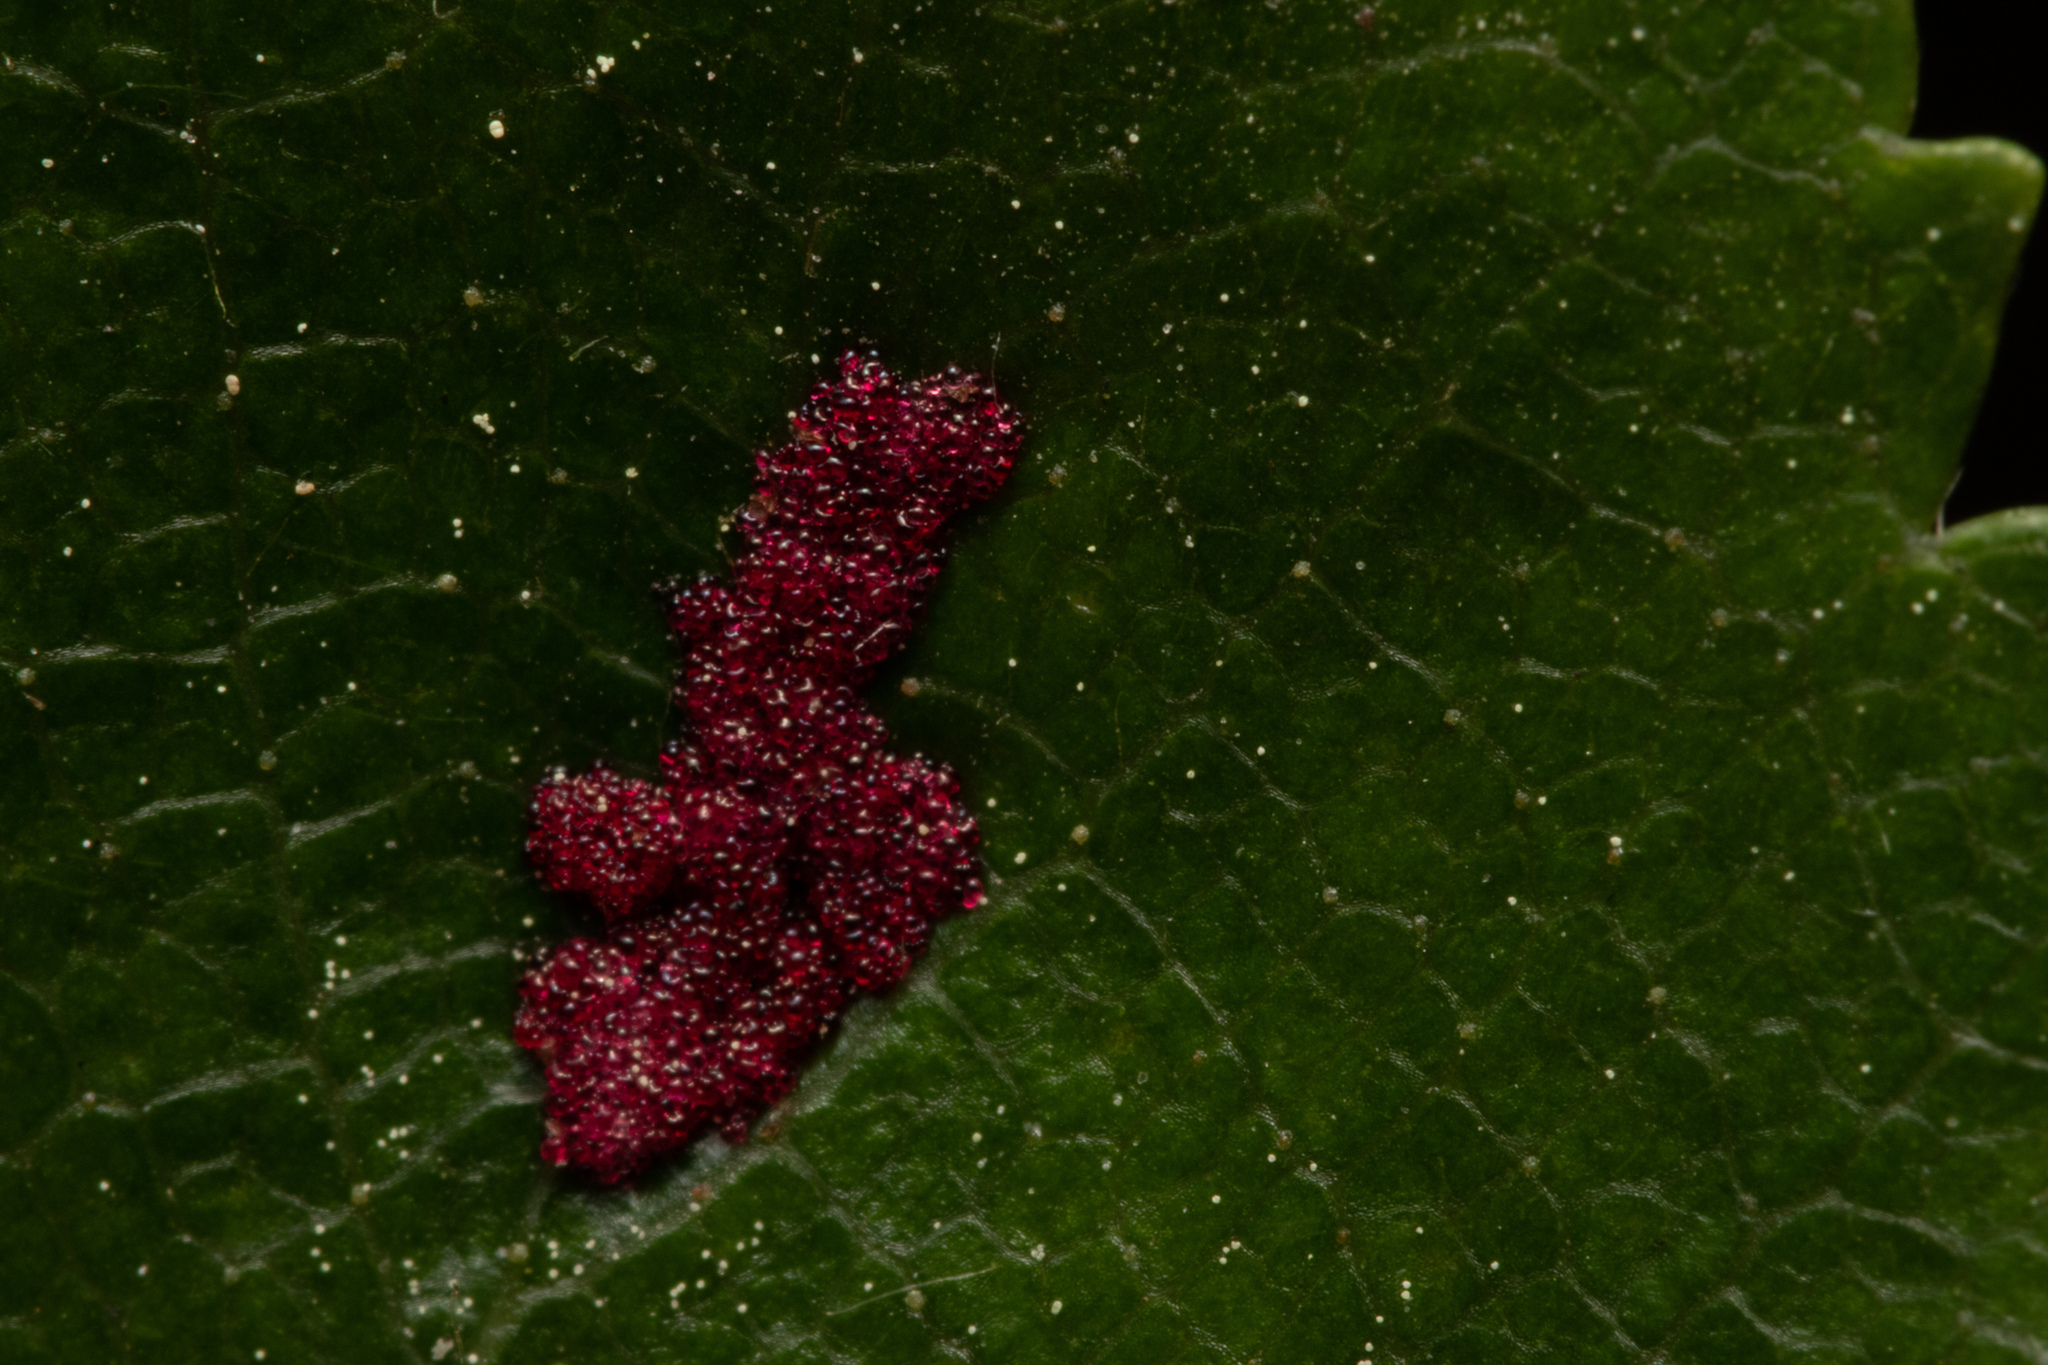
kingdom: Animalia
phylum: Arthropoda
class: Arachnida
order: Trombidiformes
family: Eriophyidae
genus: Acalitus
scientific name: Acalitus longisetosus
